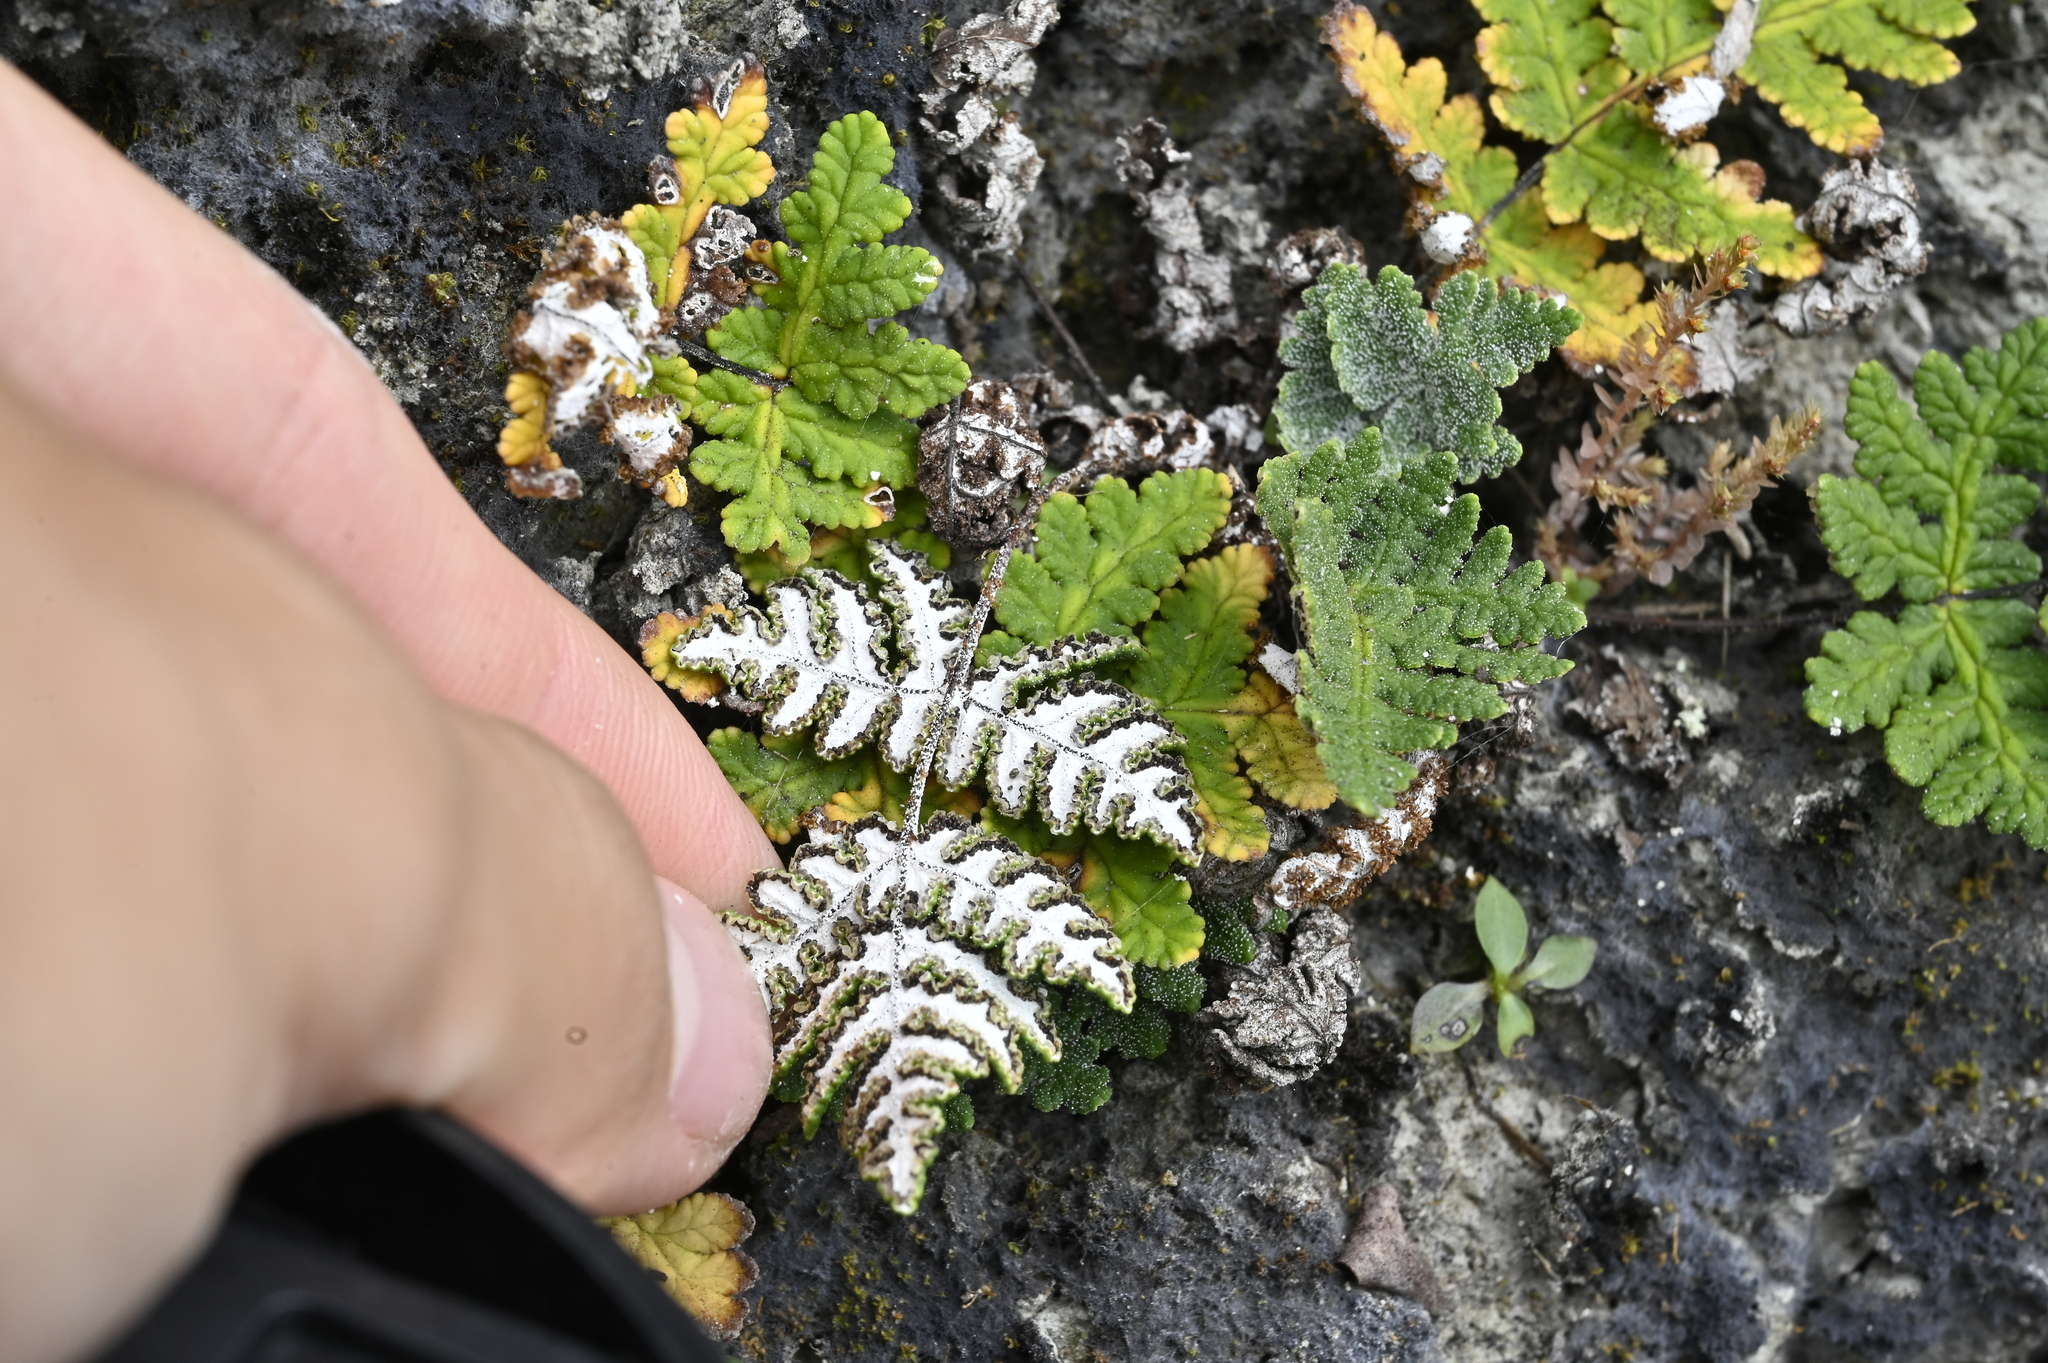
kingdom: Plantae
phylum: Tracheophyta
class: Polypodiopsida
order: Polypodiales
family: Pteridaceae
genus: Aleuritopteris
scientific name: Aleuritopteris krameri
